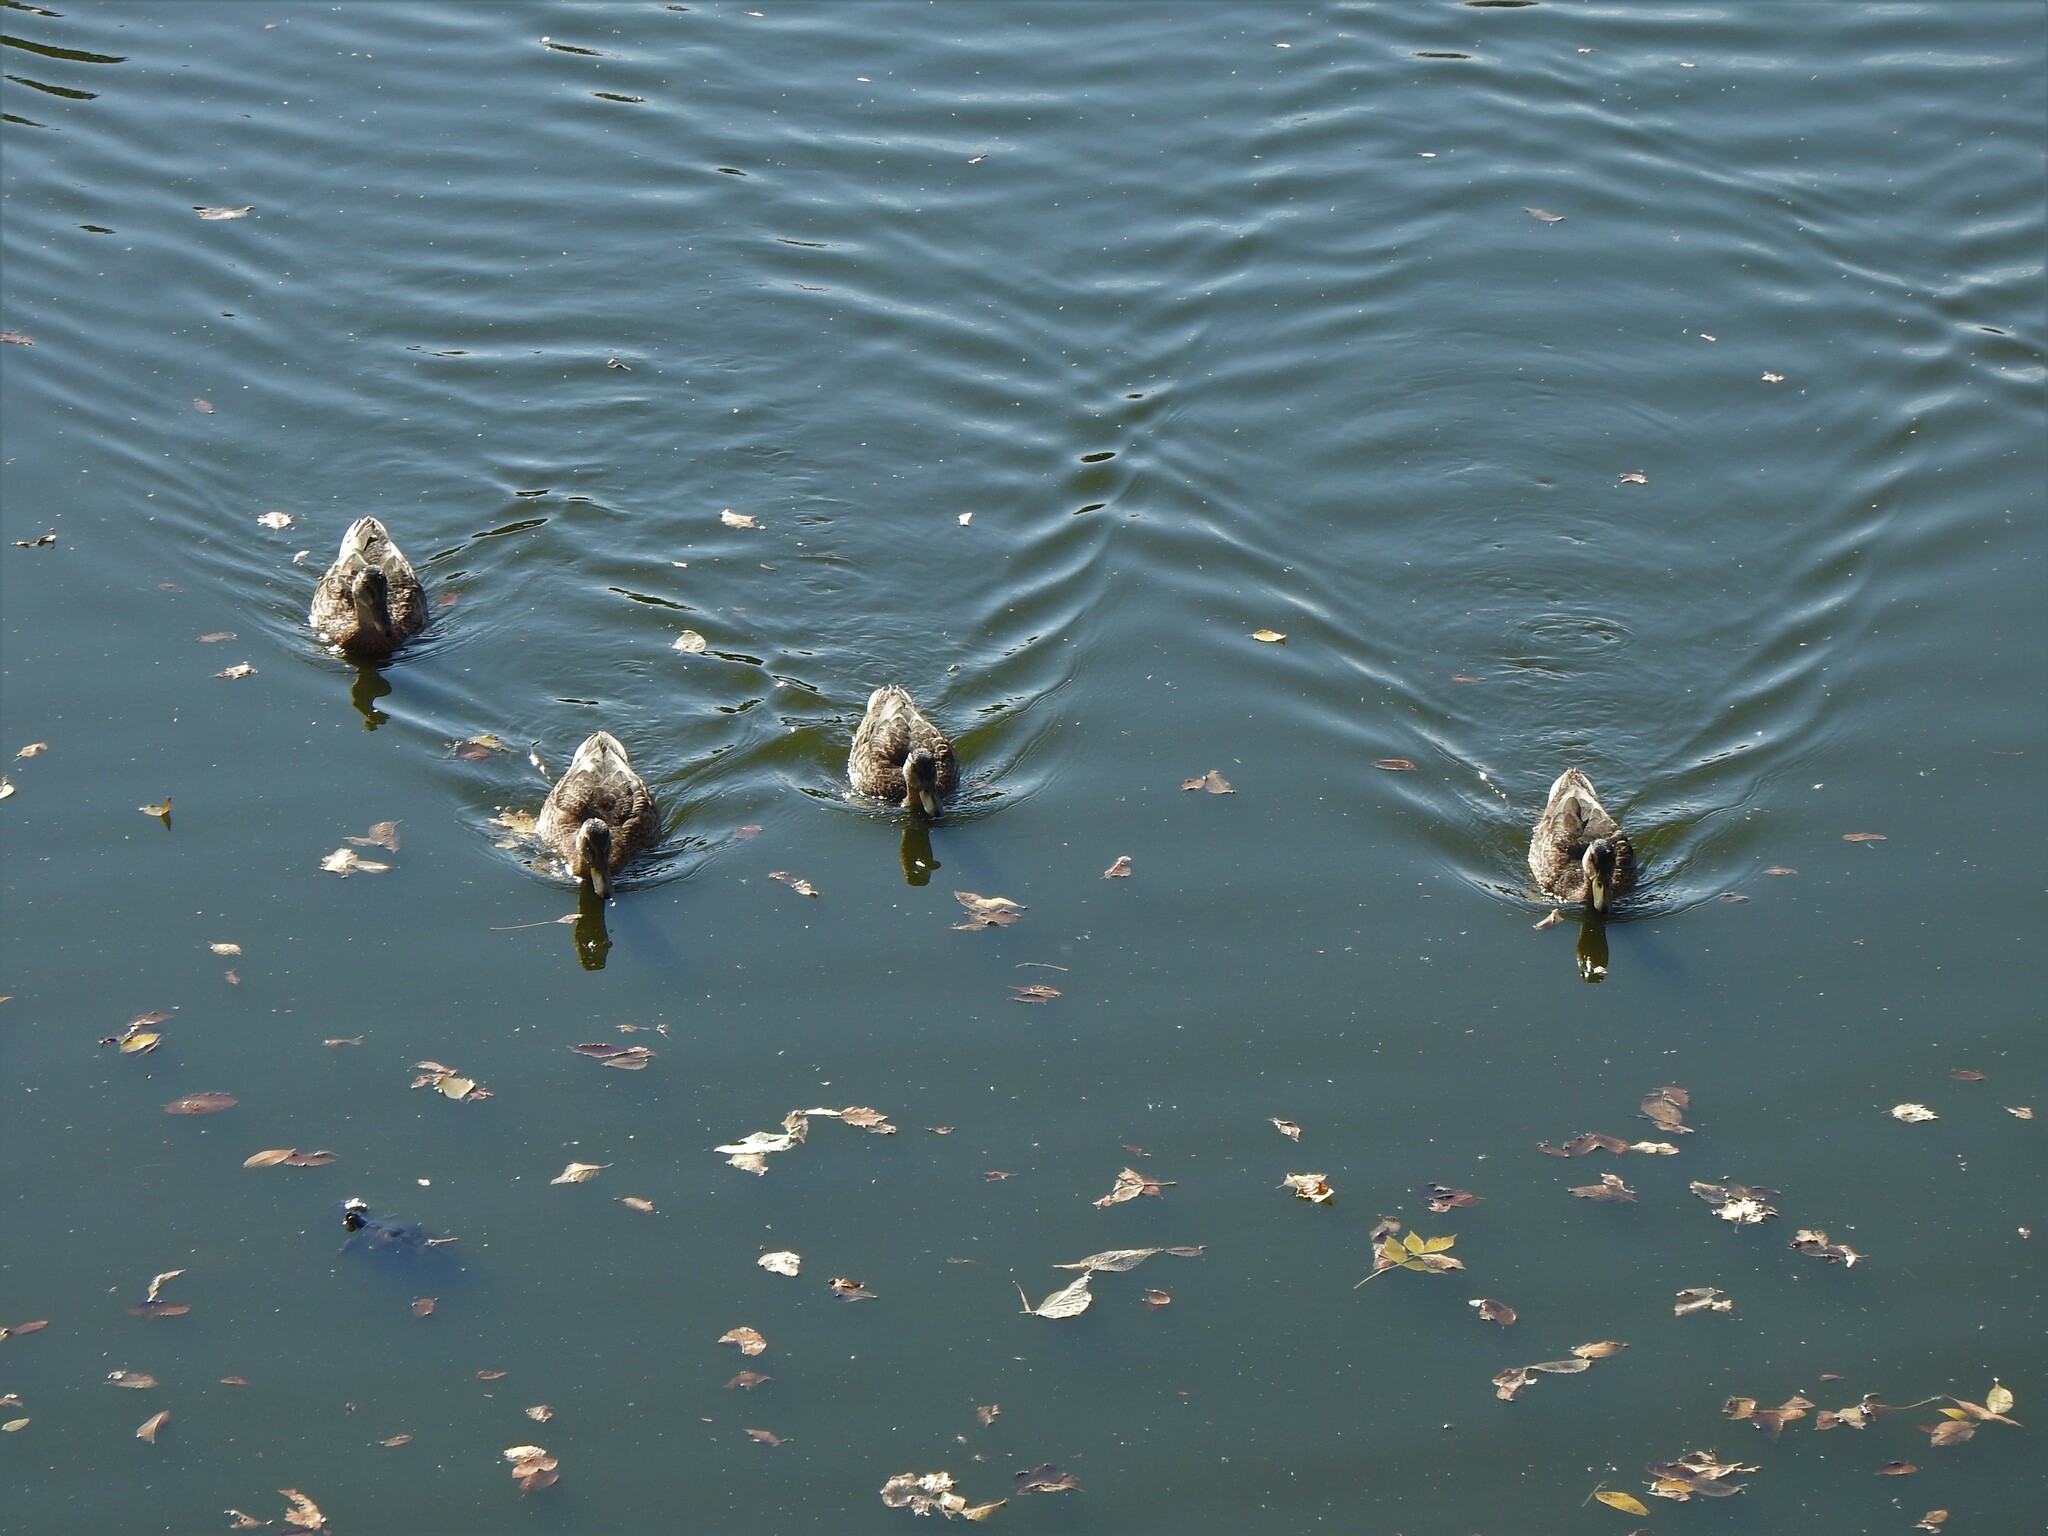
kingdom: Animalia
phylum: Chordata
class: Aves
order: Anseriformes
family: Anatidae
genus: Anas
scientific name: Anas platyrhynchos
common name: Mallard
